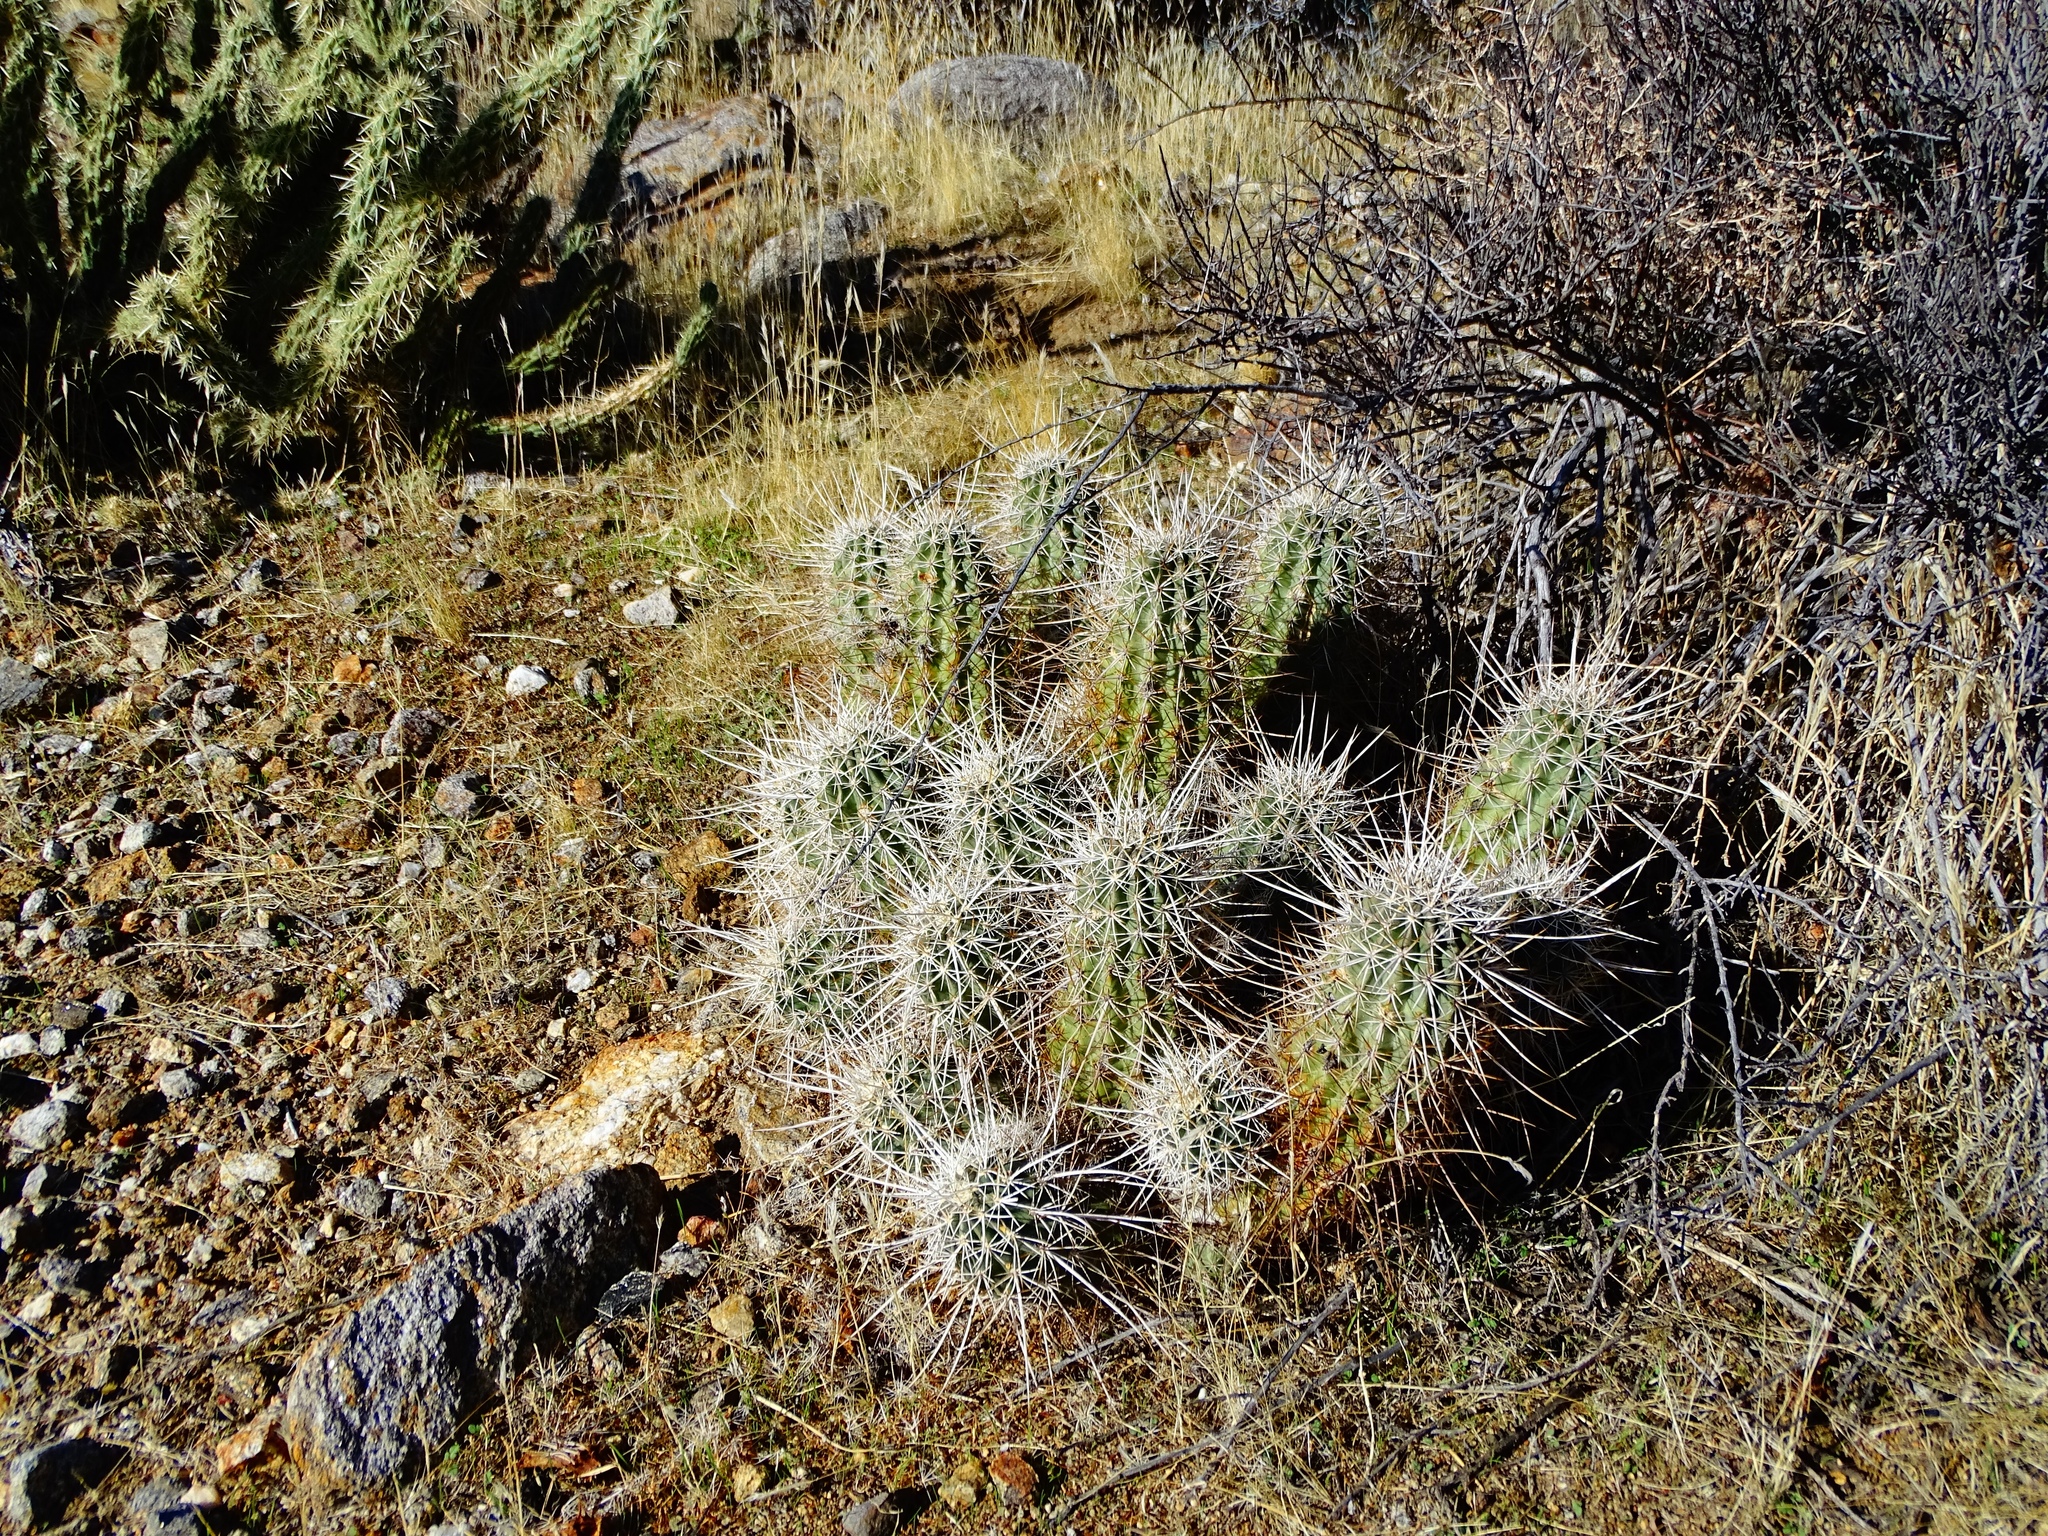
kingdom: Plantae
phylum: Tracheophyta
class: Magnoliopsida
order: Caryophyllales
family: Cactaceae
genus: Echinocereus
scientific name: Echinocereus engelmannii
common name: Engelmann's hedgehog cactus
